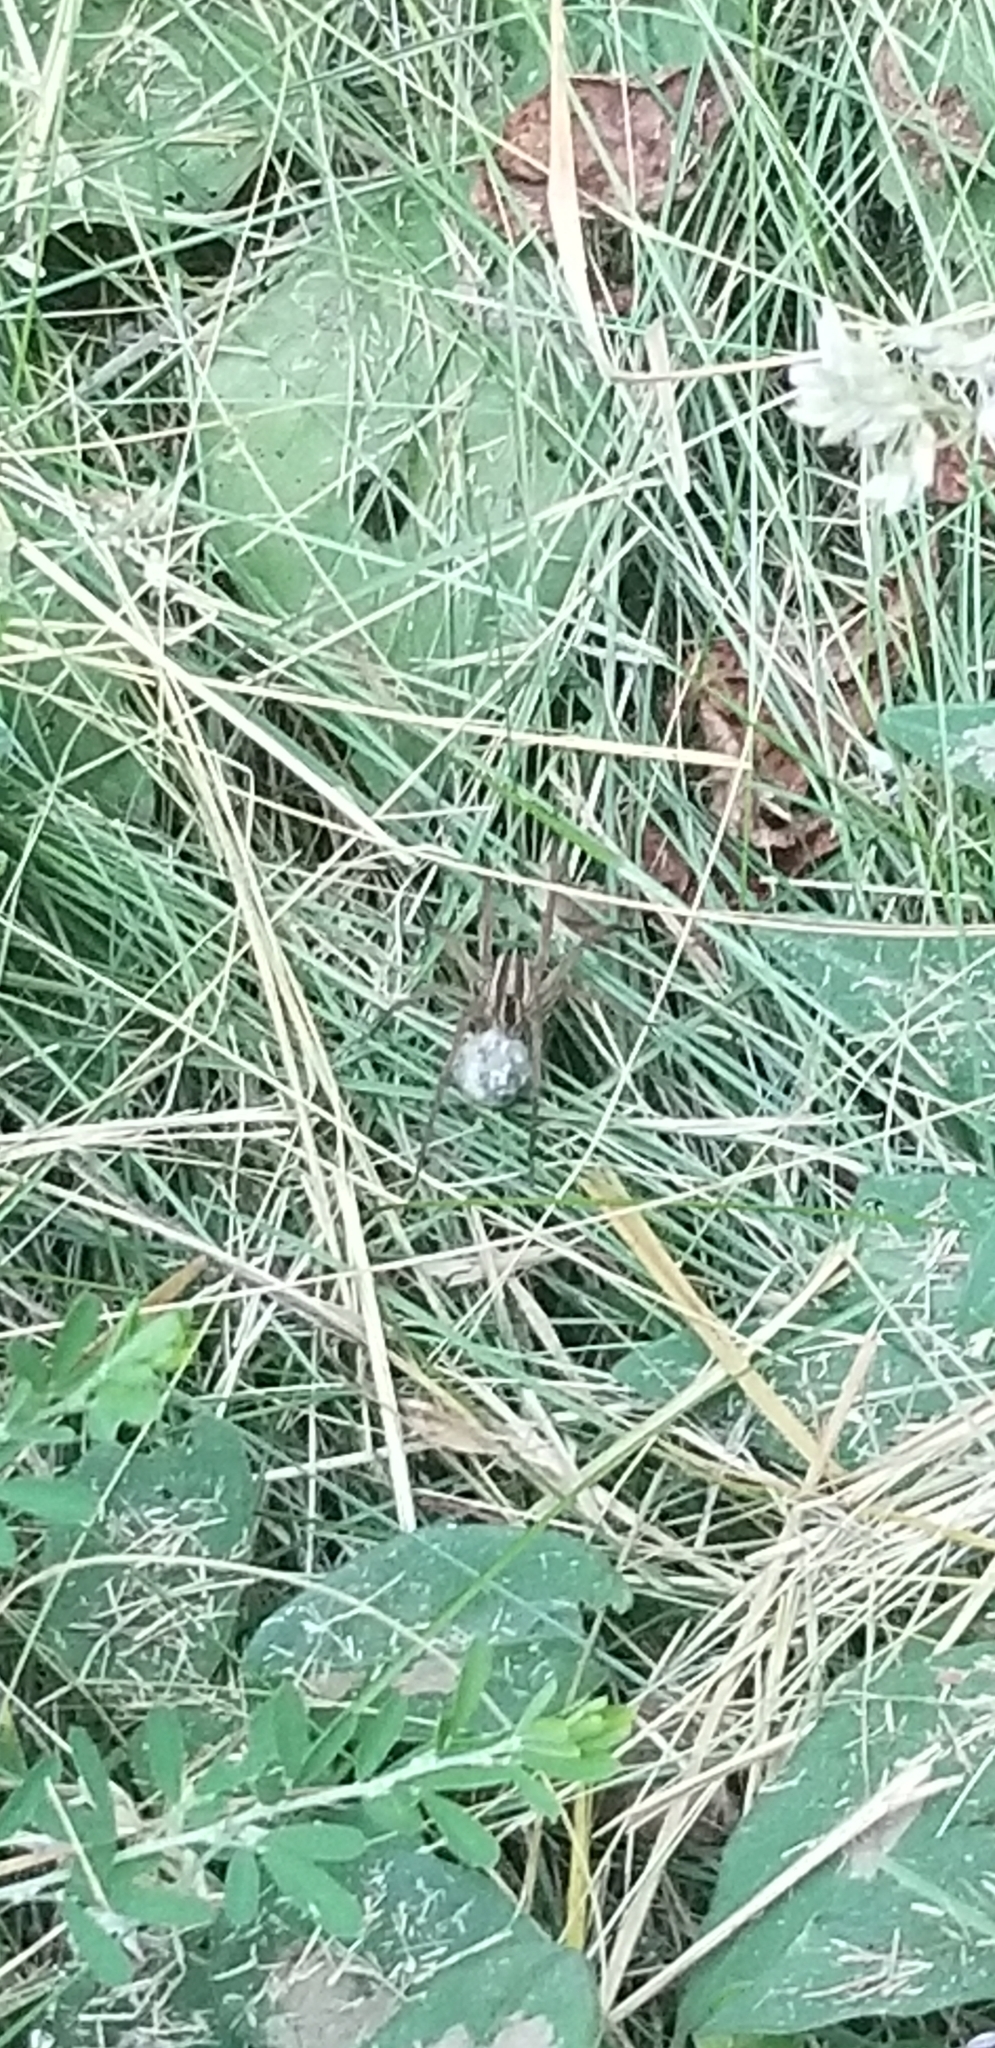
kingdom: Animalia
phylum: Arthropoda
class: Arachnida
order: Araneae
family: Lycosidae
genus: Rabidosa
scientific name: Rabidosa rabida
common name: Rabid wolf spider
